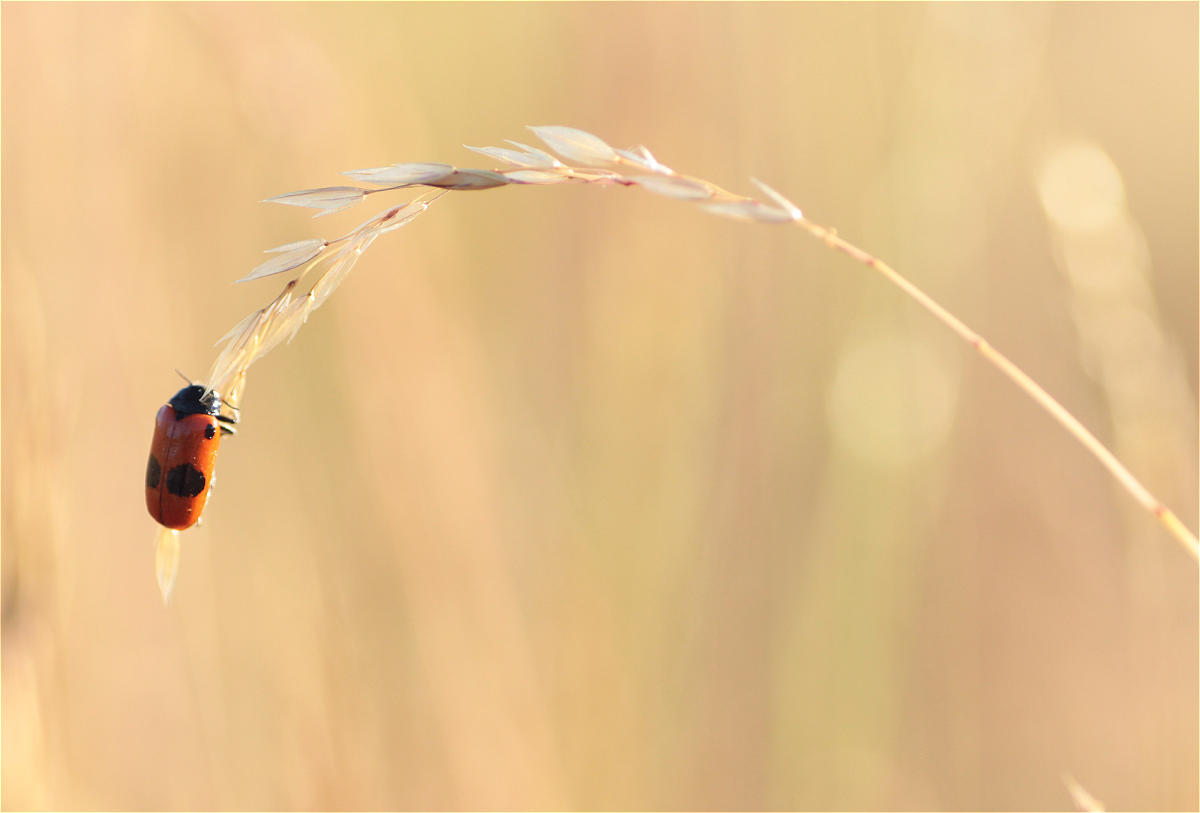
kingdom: Animalia
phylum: Arthropoda
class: Insecta
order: Coleoptera
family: Chrysomelidae
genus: Clytra
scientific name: Clytra laeviuscula
